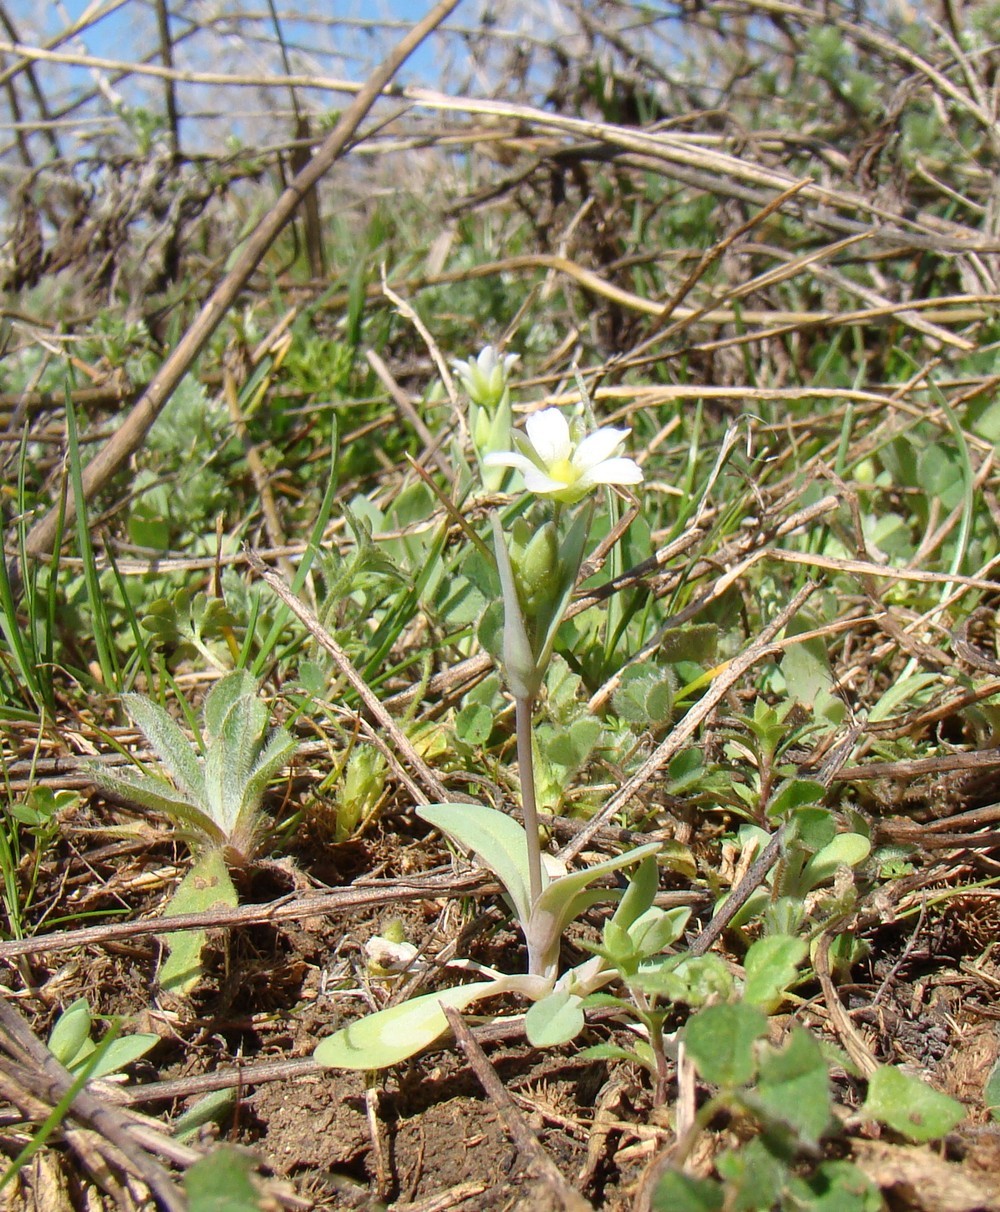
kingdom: Plantae
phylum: Tracheophyta
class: Magnoliopsida
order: Caryophyllales
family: Caryophyllaceae
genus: Holosteum
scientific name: Holosteum umbellatum
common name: Jagged chickweed
